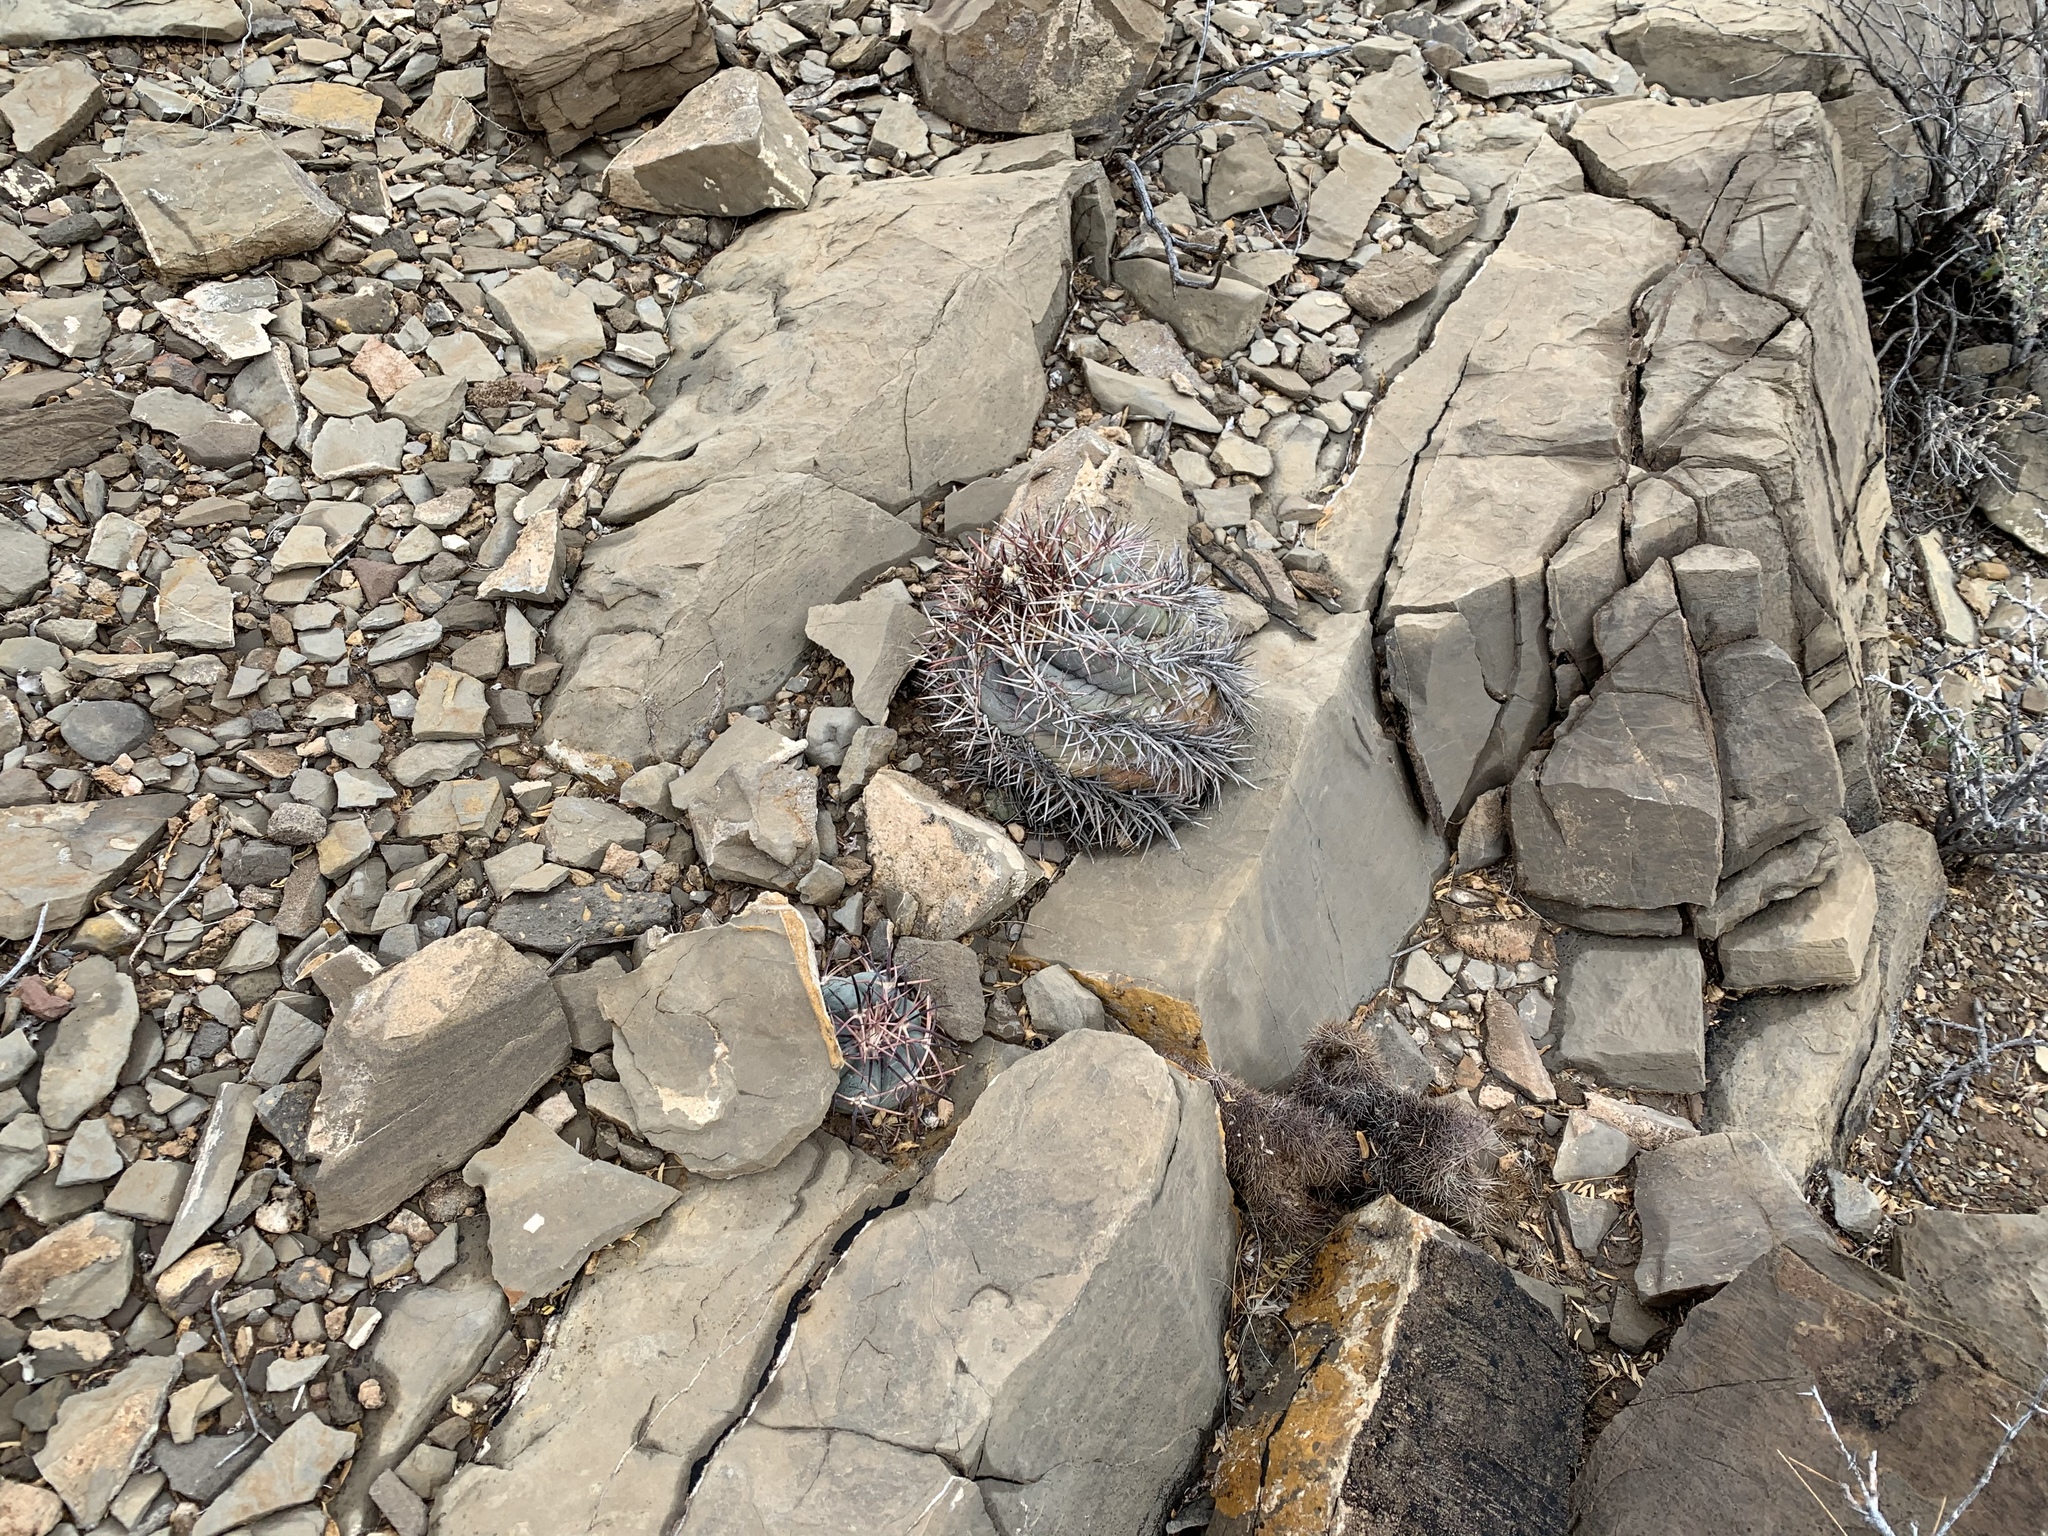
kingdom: Plantae
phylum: Tracheophyta
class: Magnoliopsida
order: Caryophyllales
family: Cactaceae
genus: Echinocactus
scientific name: Echinocactus horizonthalonius
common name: Devilshead
